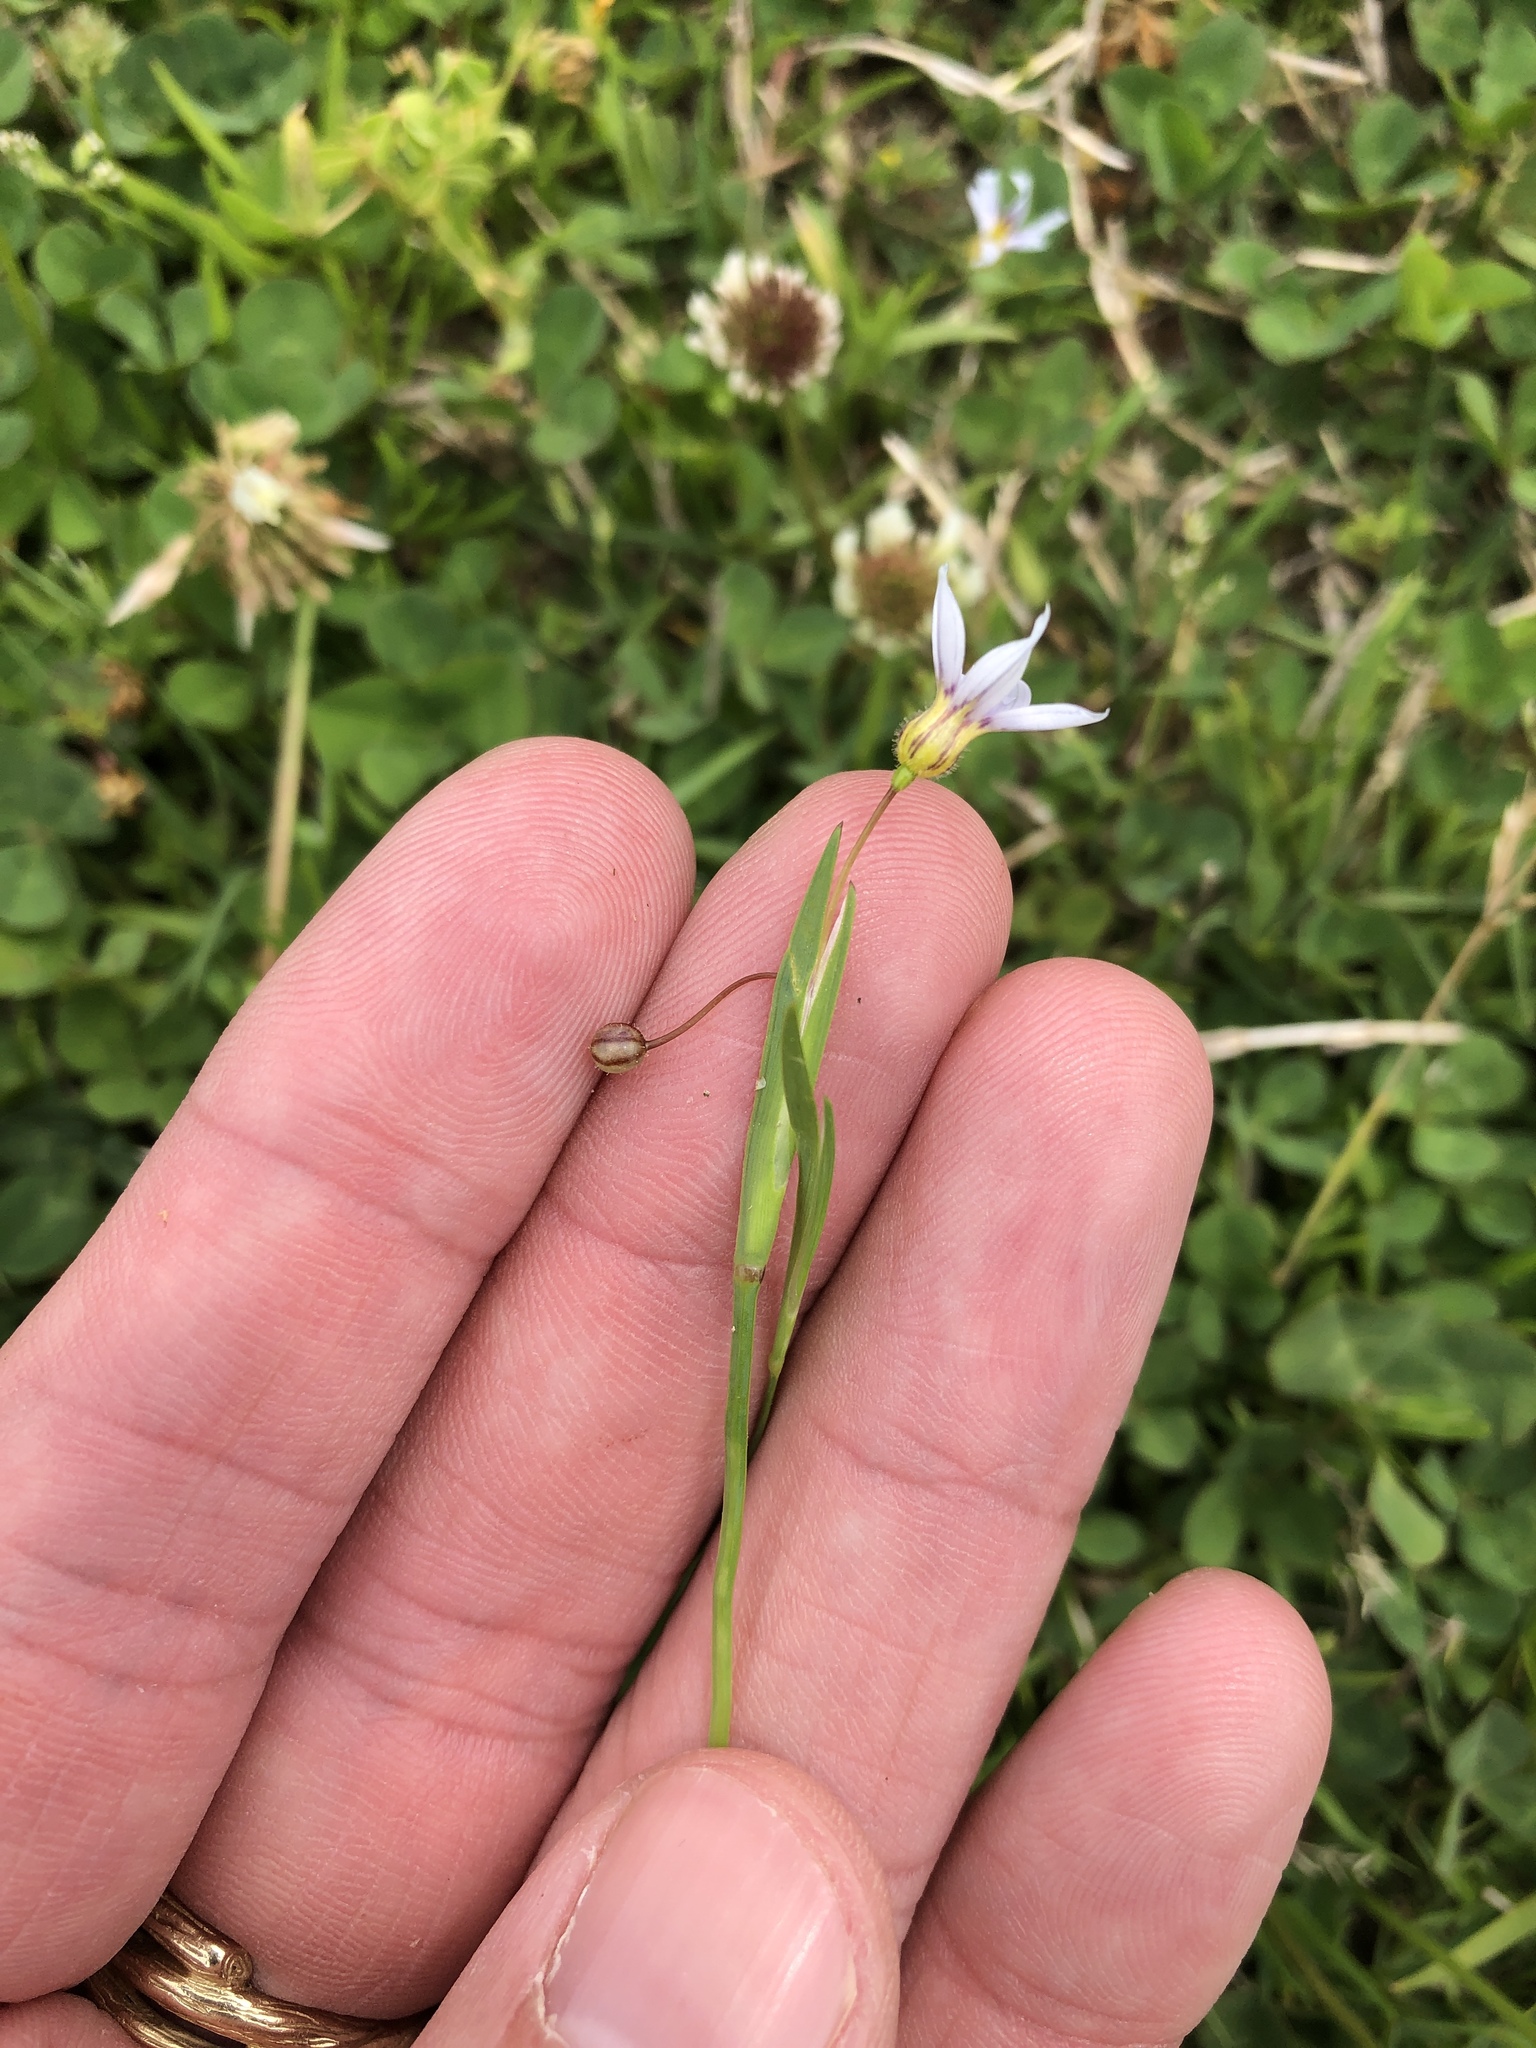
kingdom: Plantae
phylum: Tracheophyta
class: Liliopsida
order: Asparagales
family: Iridaceae
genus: Sisyrinchium
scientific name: Sisyrinchium micranthum
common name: Bermuda pigroot
